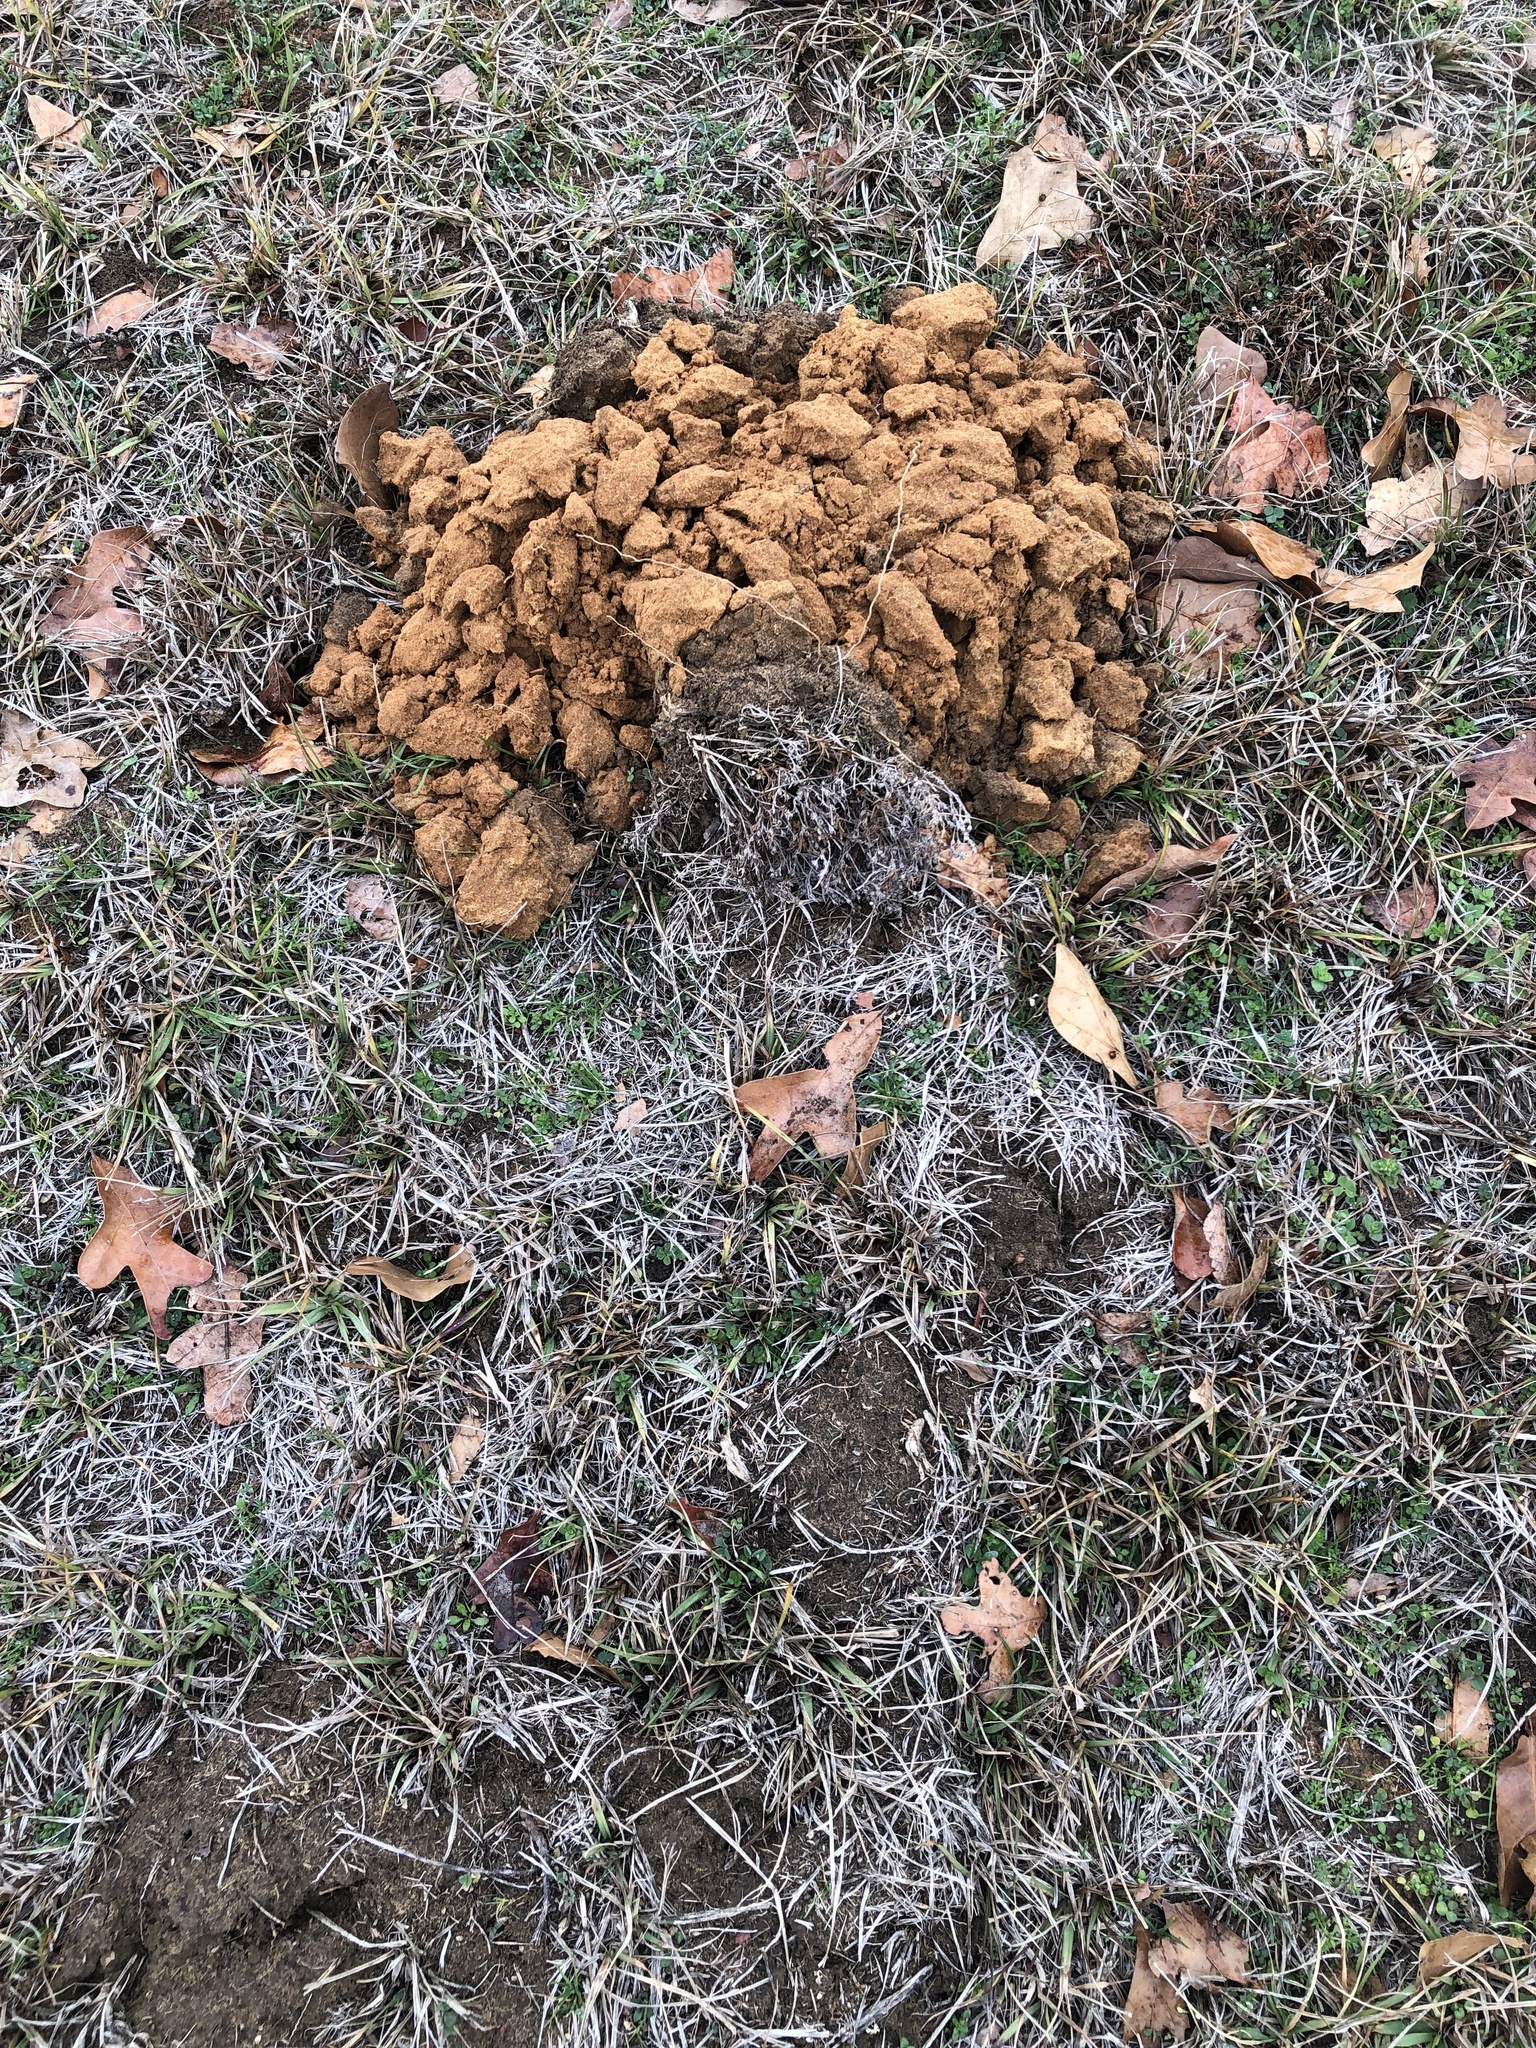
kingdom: Animalia
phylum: Chordata
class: Mammalia
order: Soricomorpha
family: Talpidae
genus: Scalopus
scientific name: Scalopus aquaticus
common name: Eastern mole
